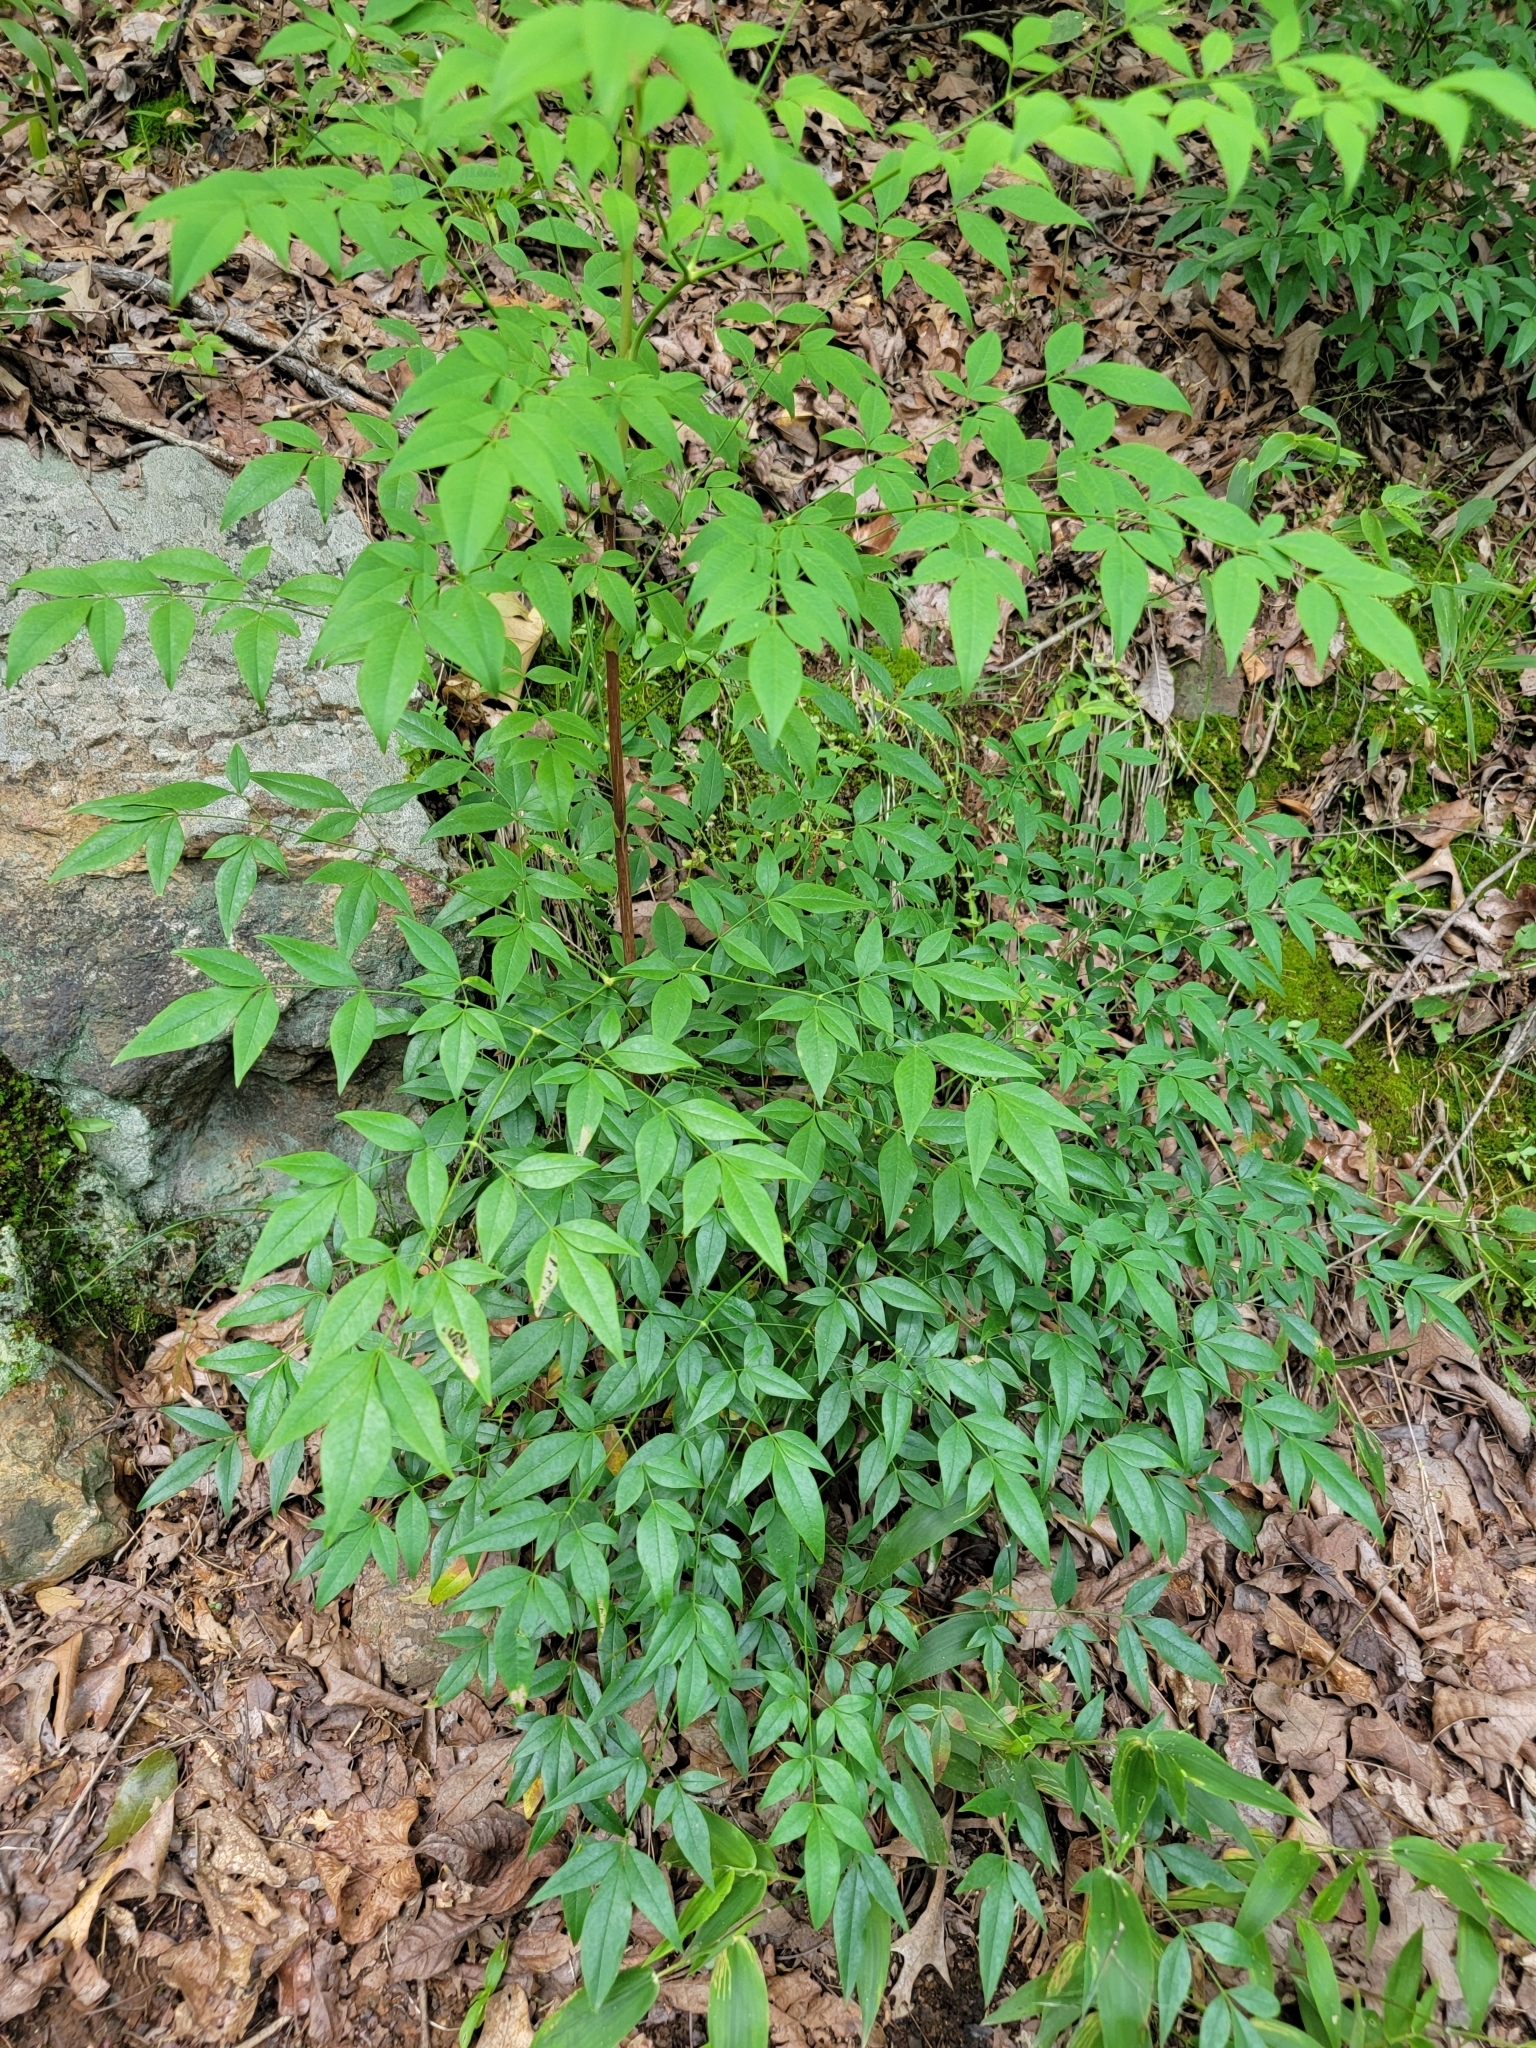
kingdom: Plantae
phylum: Tracheophyta
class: Magnoliopsida
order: Ranunculales
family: Berberidaceae
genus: Nandina
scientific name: Nandina domestica
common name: Sacred bamboo
